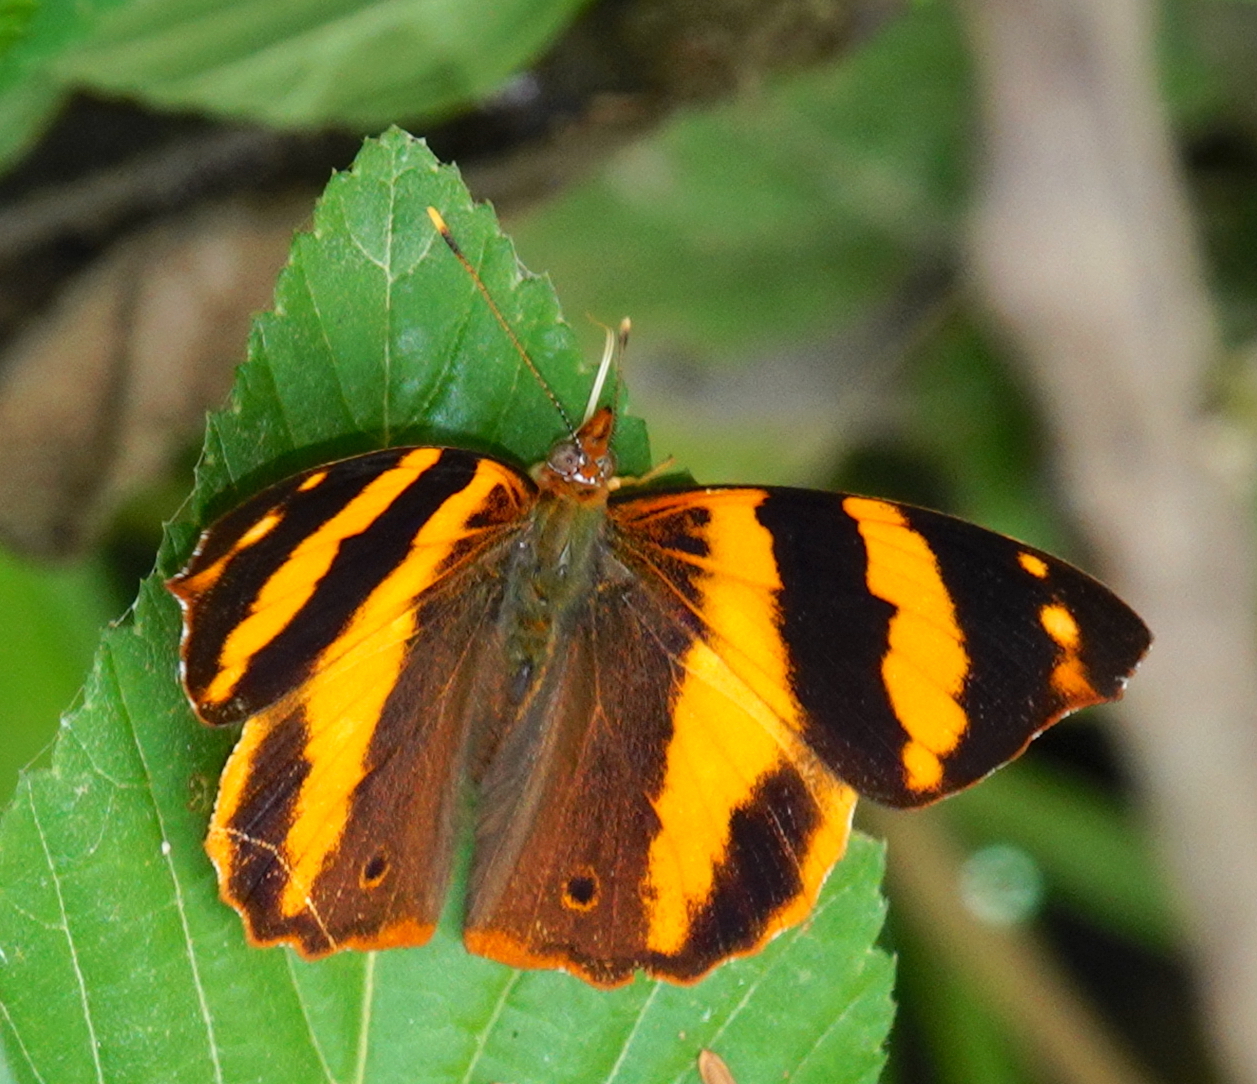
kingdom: Animalia
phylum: Arthropoda
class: Insecta
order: Lepidoptera
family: Nymphalidae
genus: Epiphile
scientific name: Epiphile dilecta
